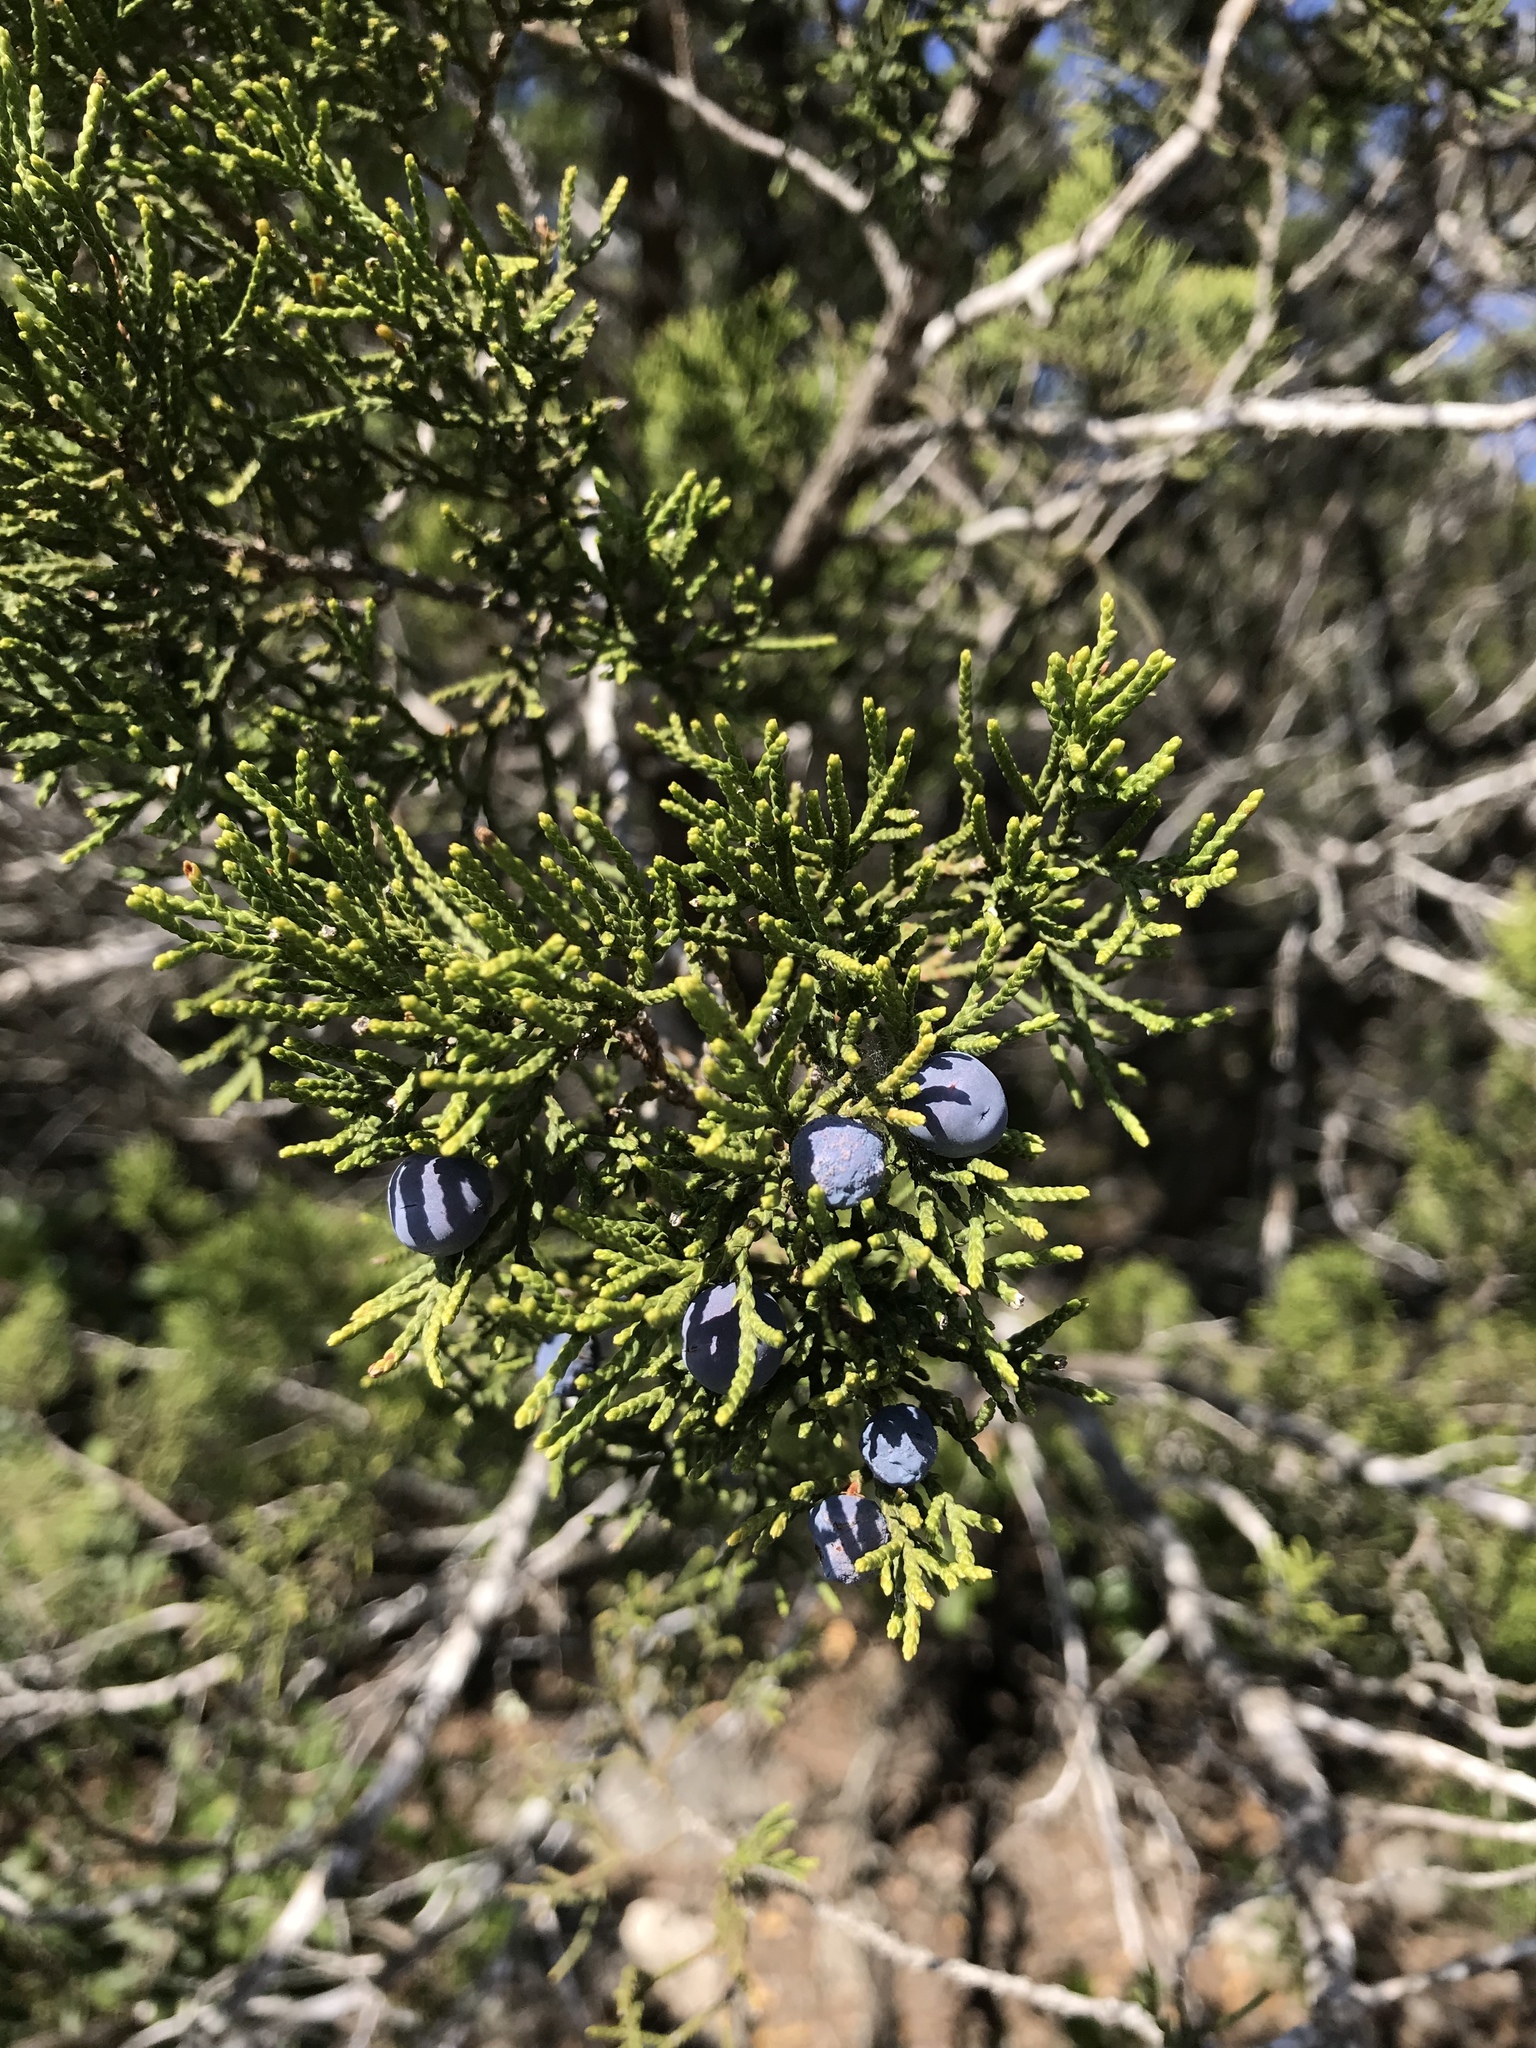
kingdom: Plantae
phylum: Tracheophyta
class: Pinopsida
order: Pinales
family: Cupressaceae
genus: Juniperus
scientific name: Juniperus ashei
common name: Mexican juniper
